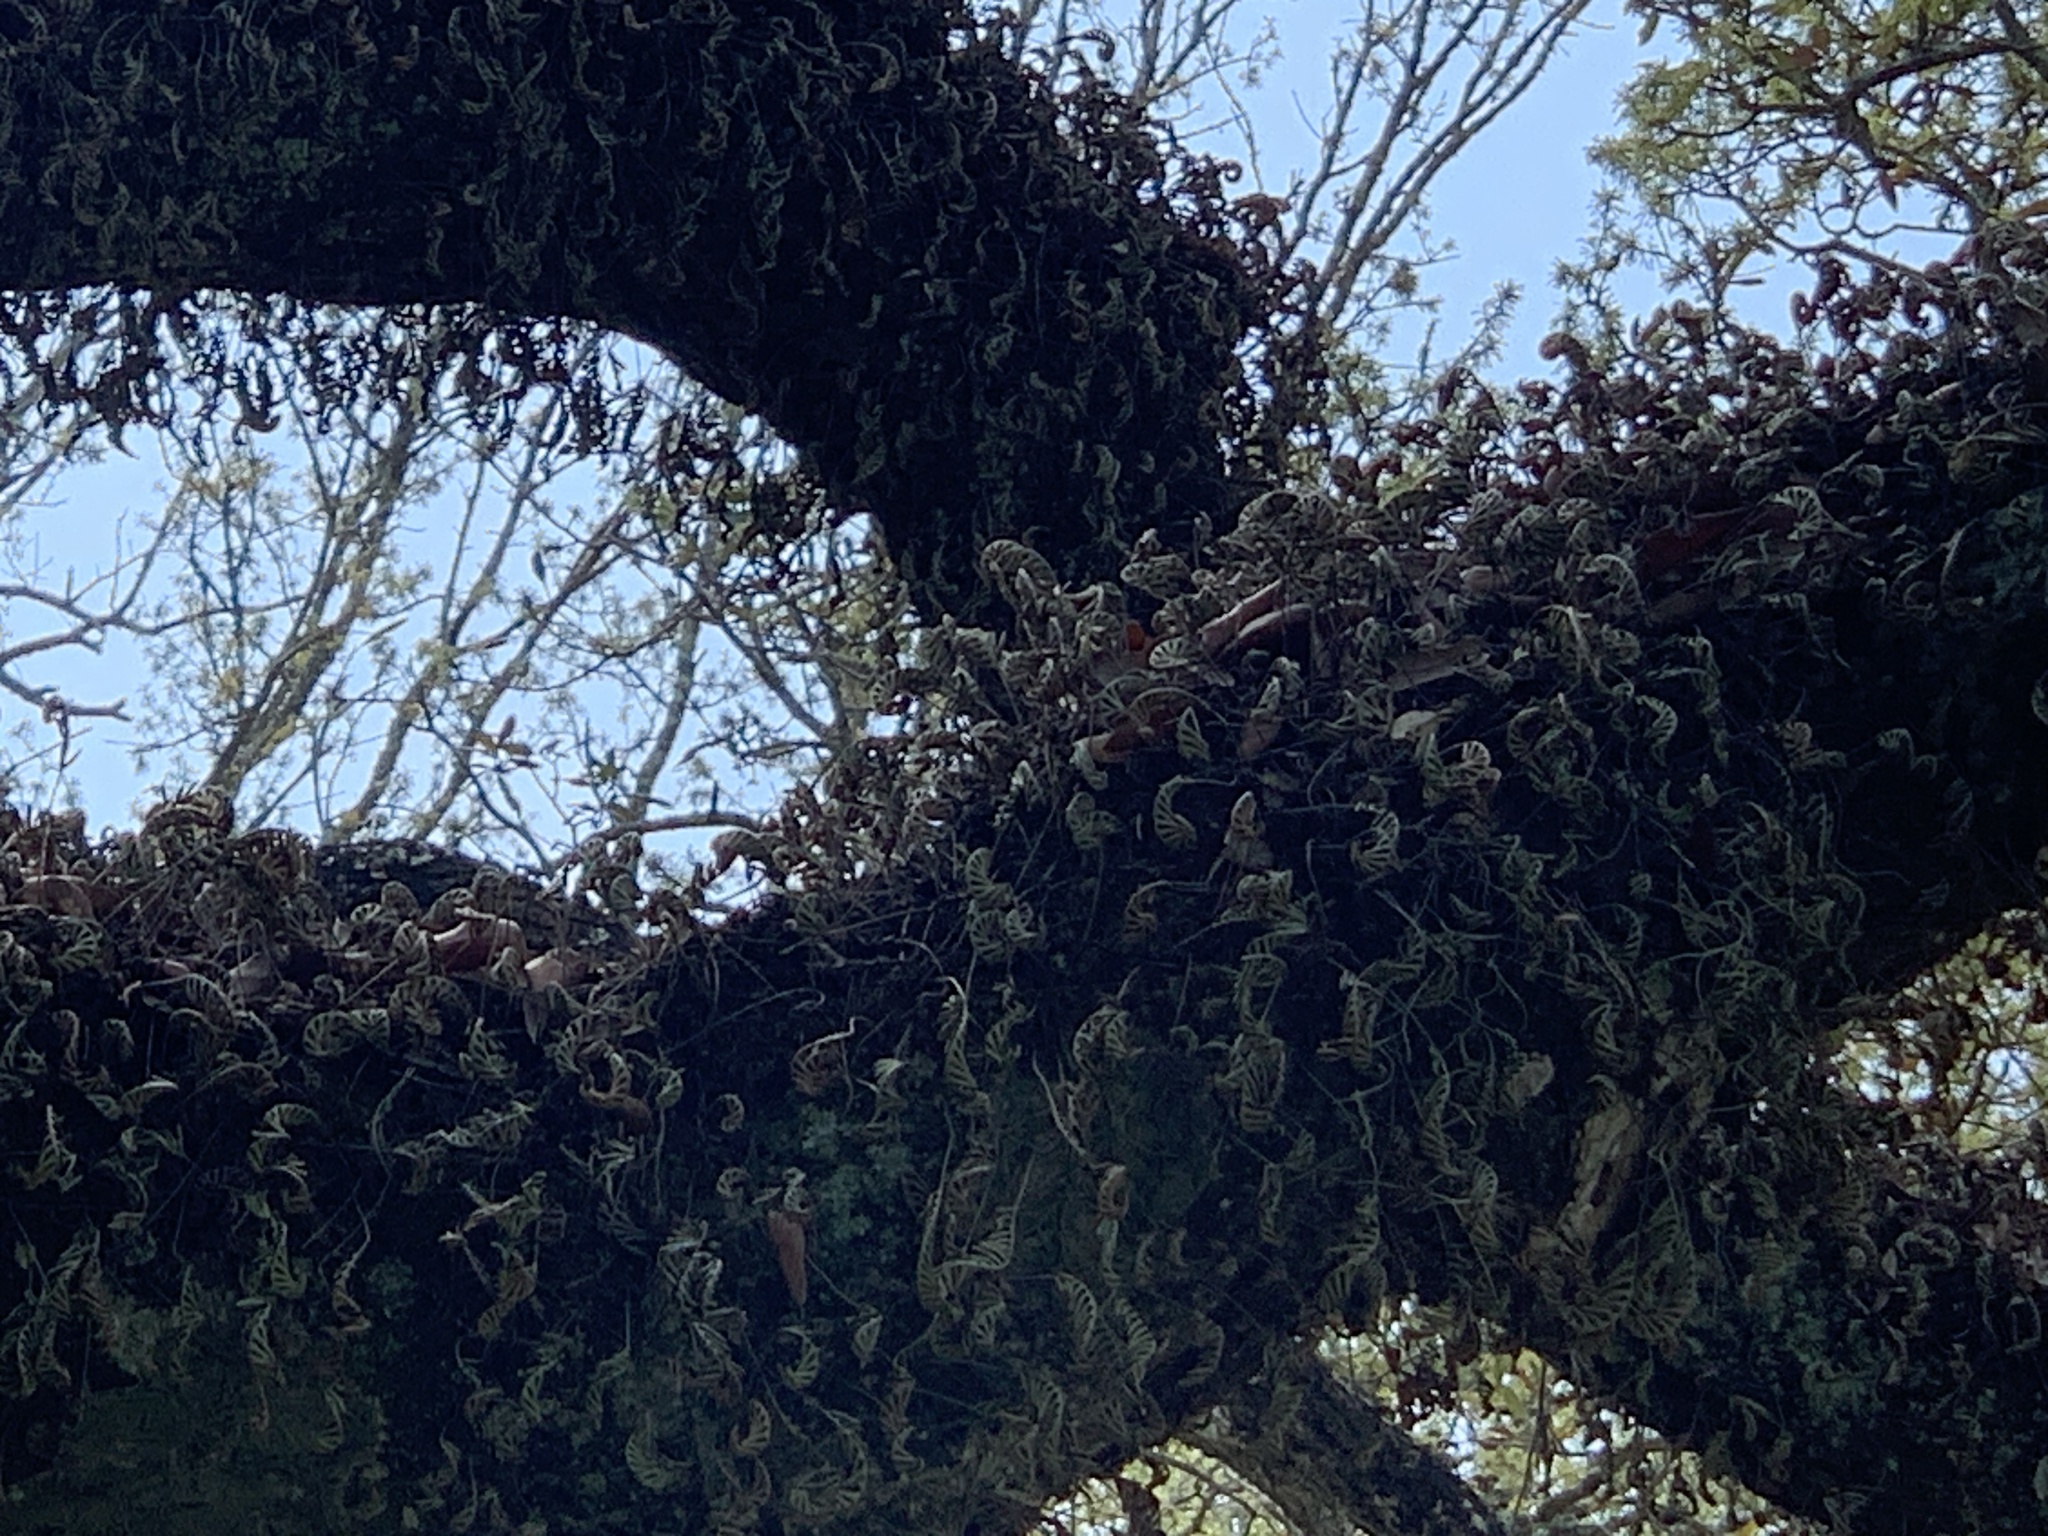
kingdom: Plantae
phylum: Tracheophyta
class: Polypodiopsida
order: Polypodiales
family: Polypodiaceae
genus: Pleopeltis
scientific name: Pleopeltis michauxiana
